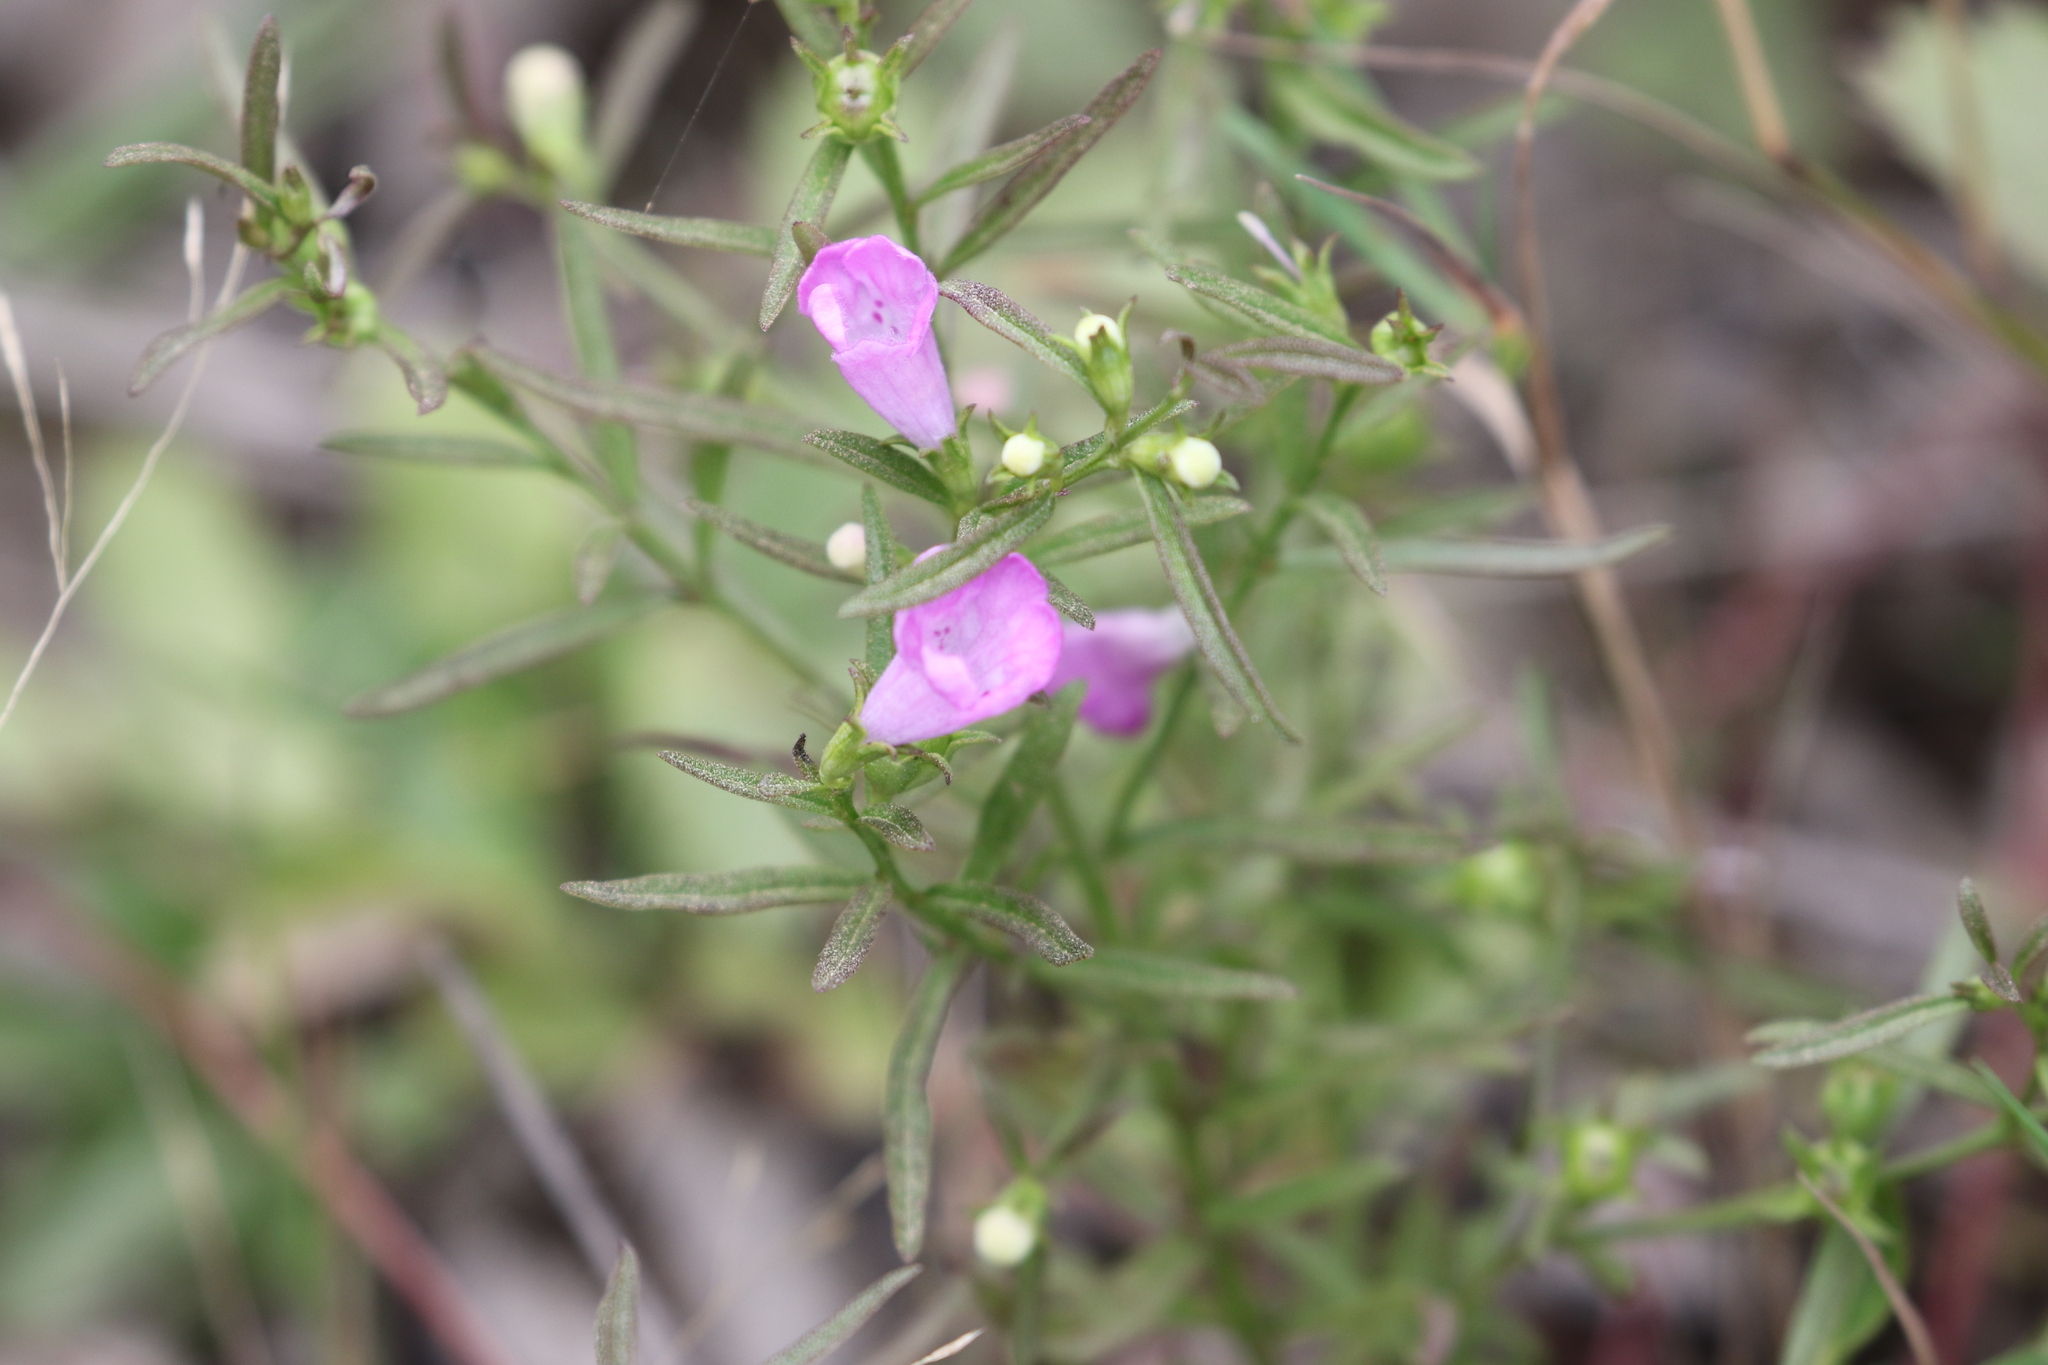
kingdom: Plantae
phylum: Tracheophyta
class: Magnoliopsida
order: Lamiales
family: Orobanchaceae
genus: Agalinis
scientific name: Agalinis neoscotica
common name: Middleton false foxglove
